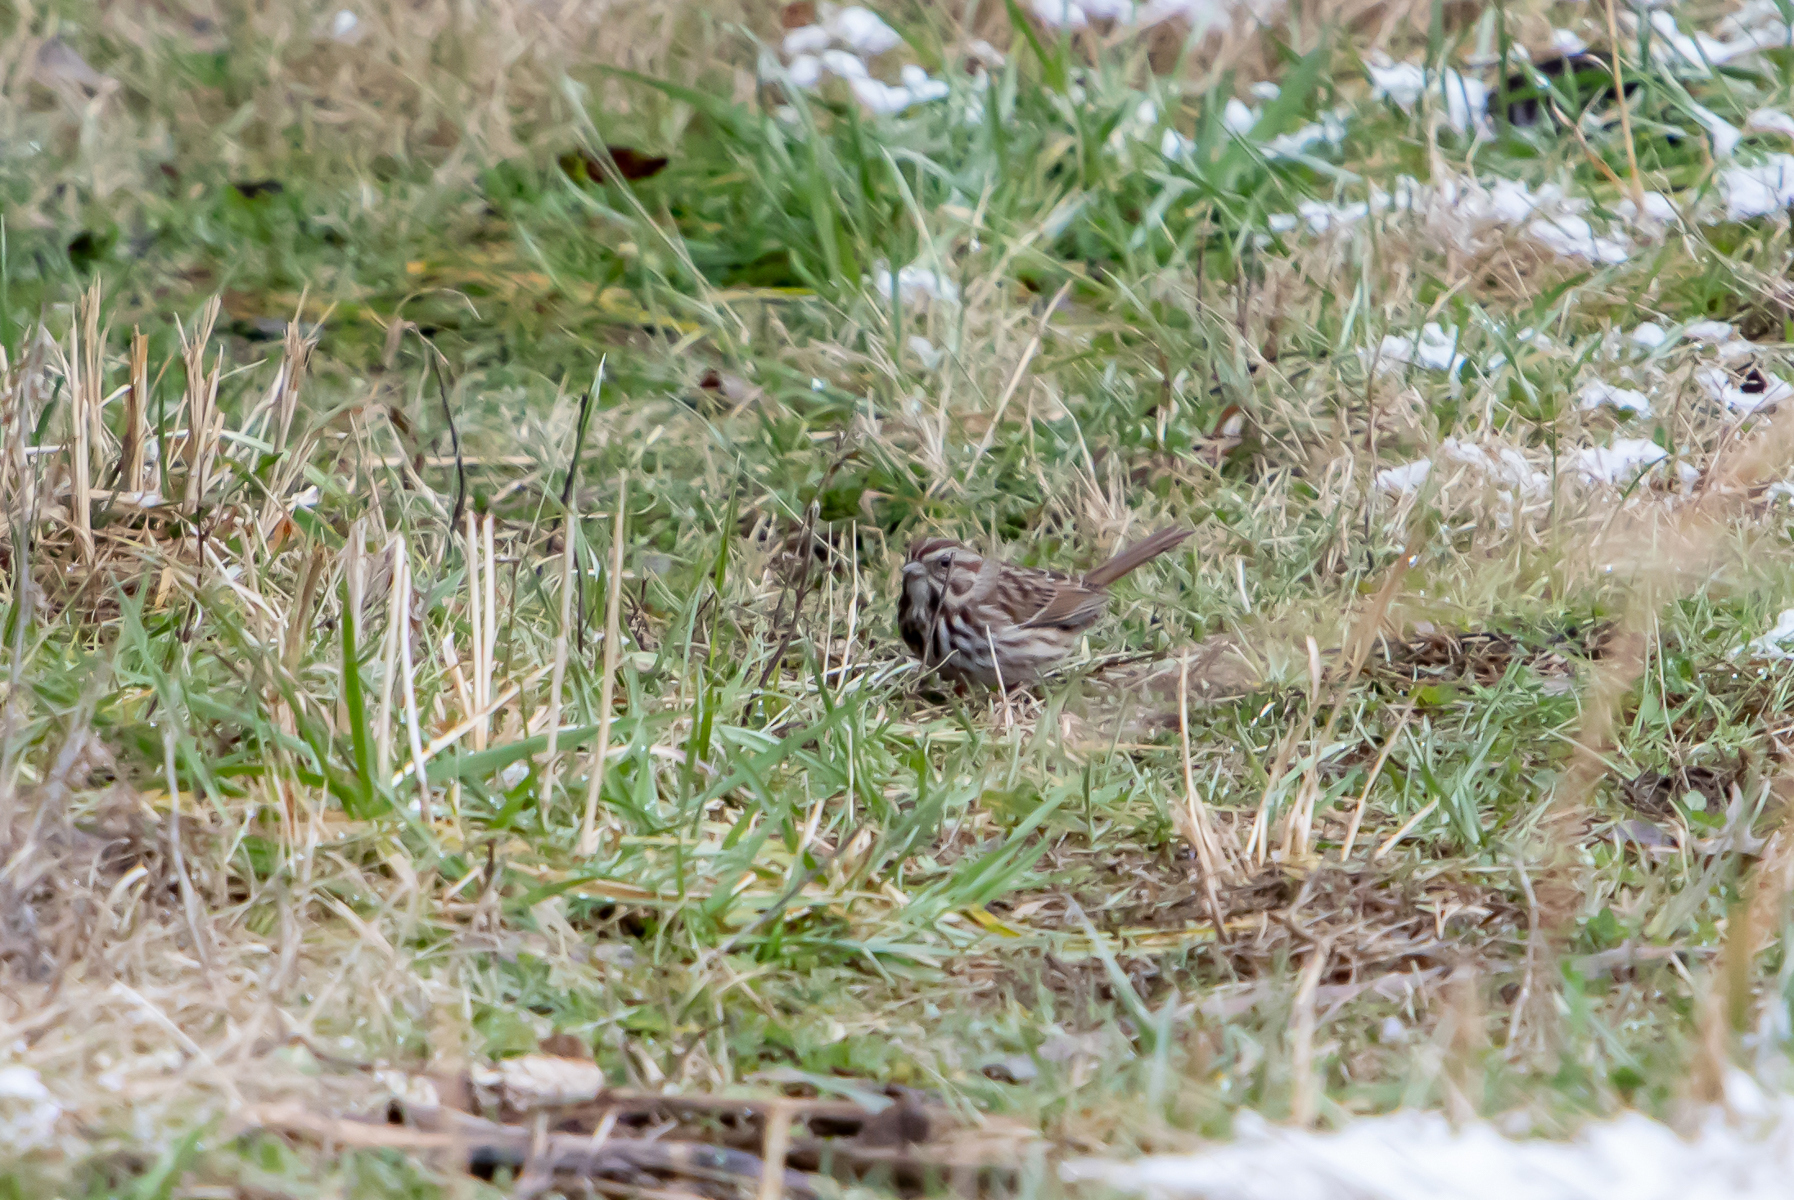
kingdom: Animalia
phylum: Chordata
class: Aves
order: Passeriformes
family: Passerellidae
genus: Melospiza
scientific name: Melospiza melodia
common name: Song sparrow
